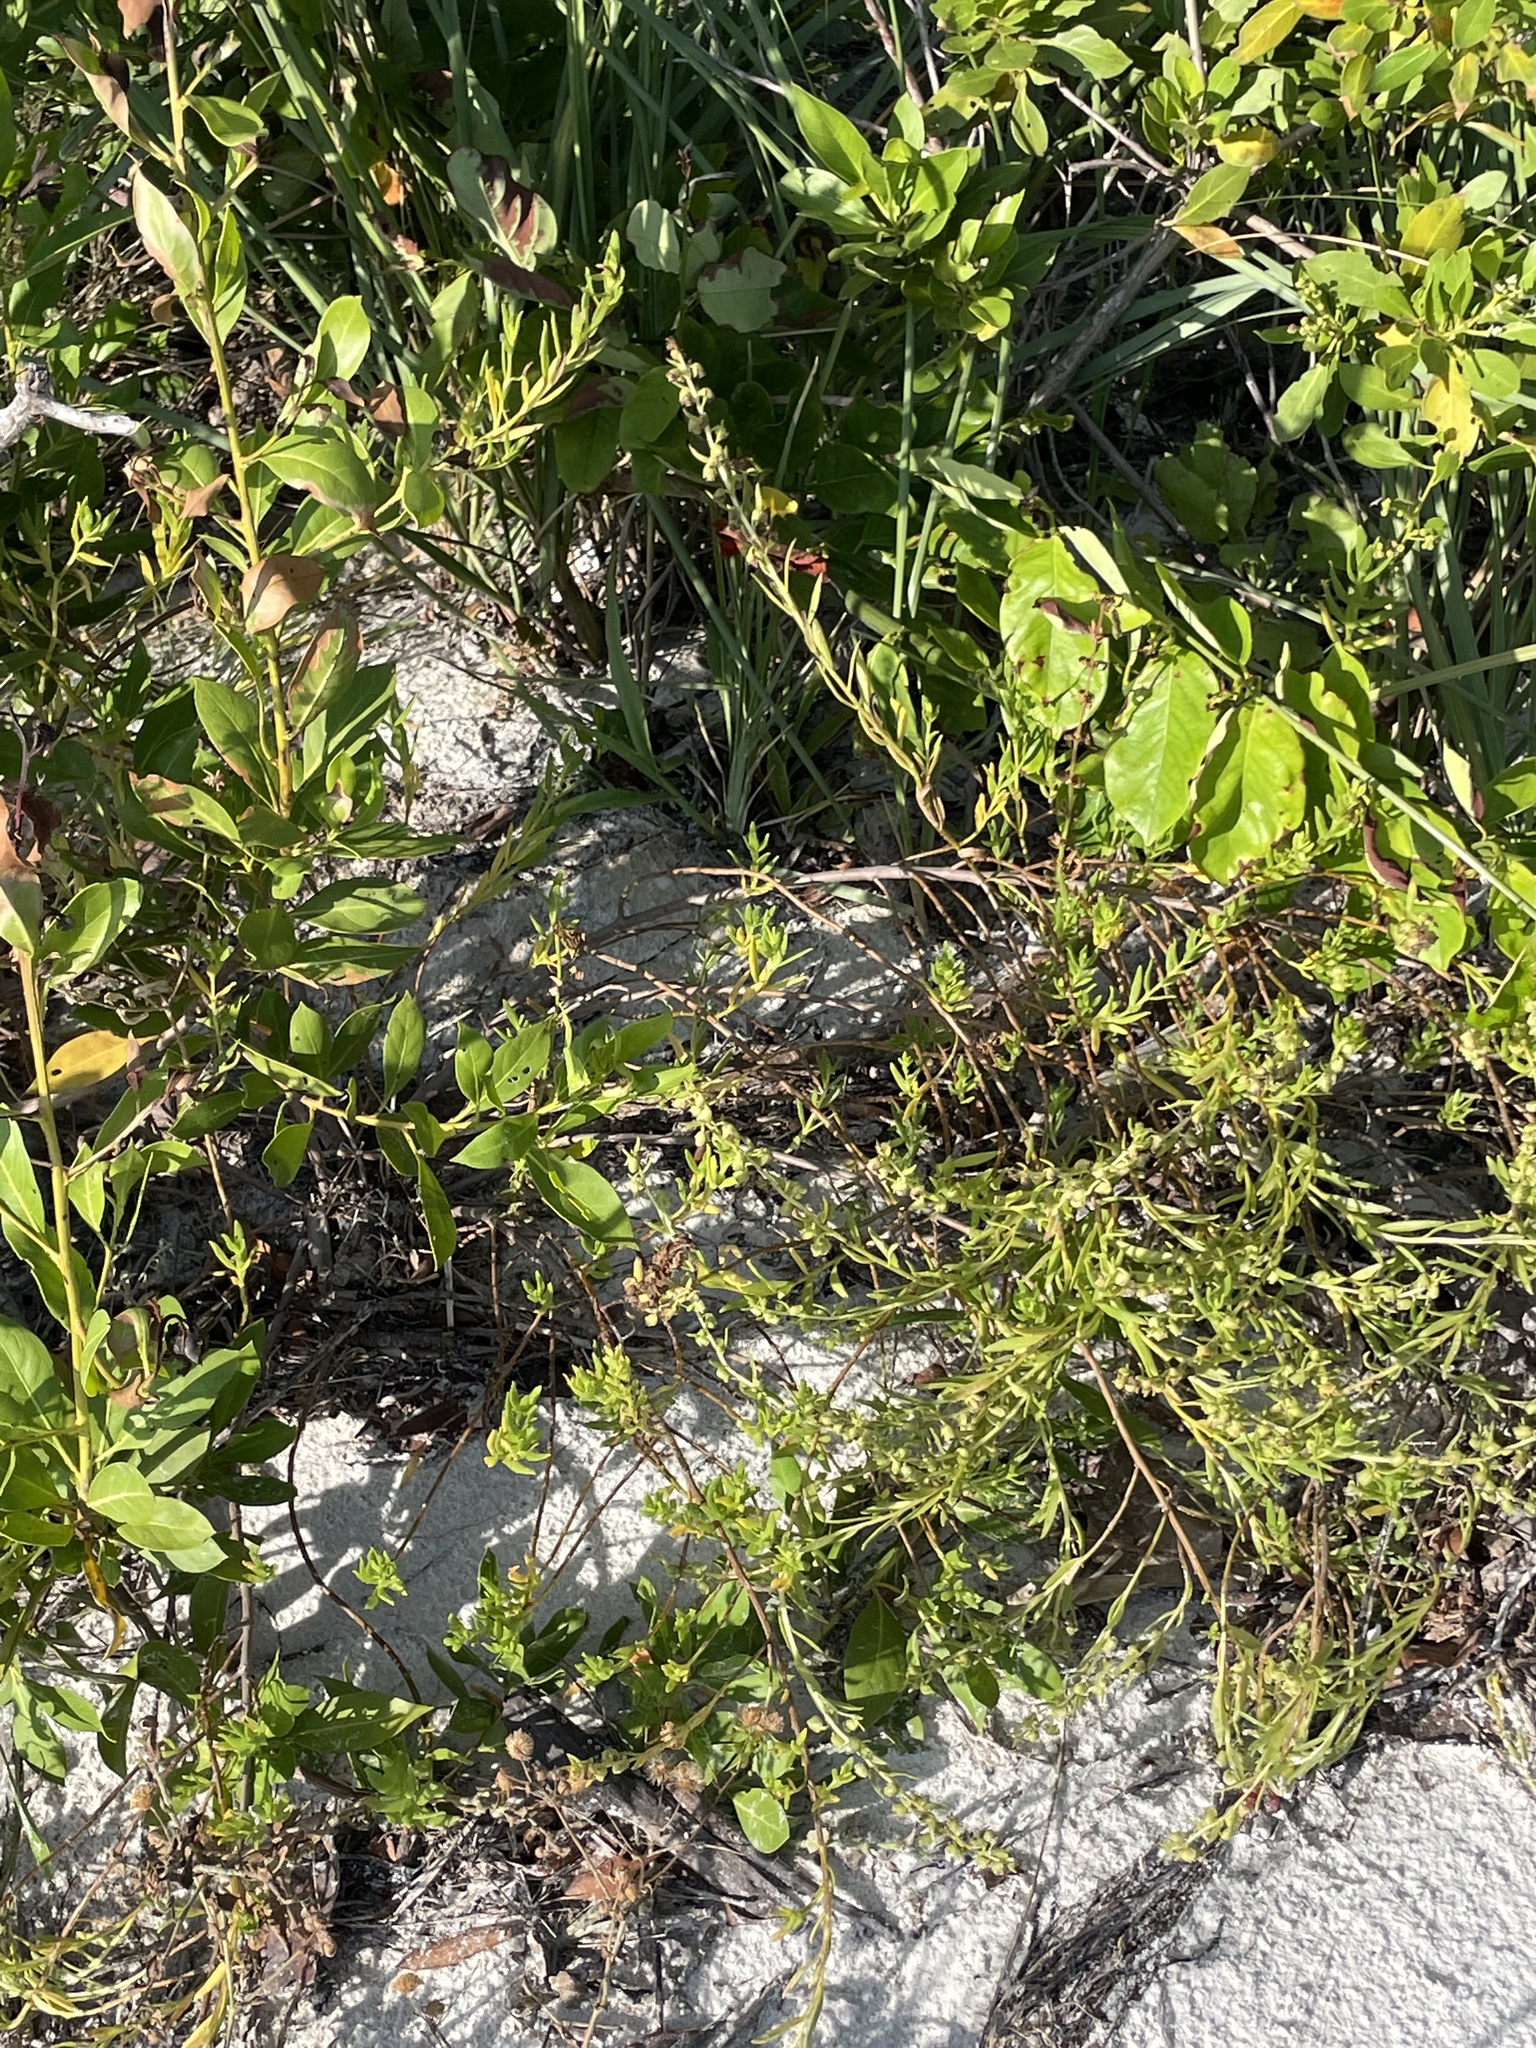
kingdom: Plantae
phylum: Tracheophyta
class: Magnoliopsida
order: Asterales
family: Asteraceae
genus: Iva
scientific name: Iva imbricata
